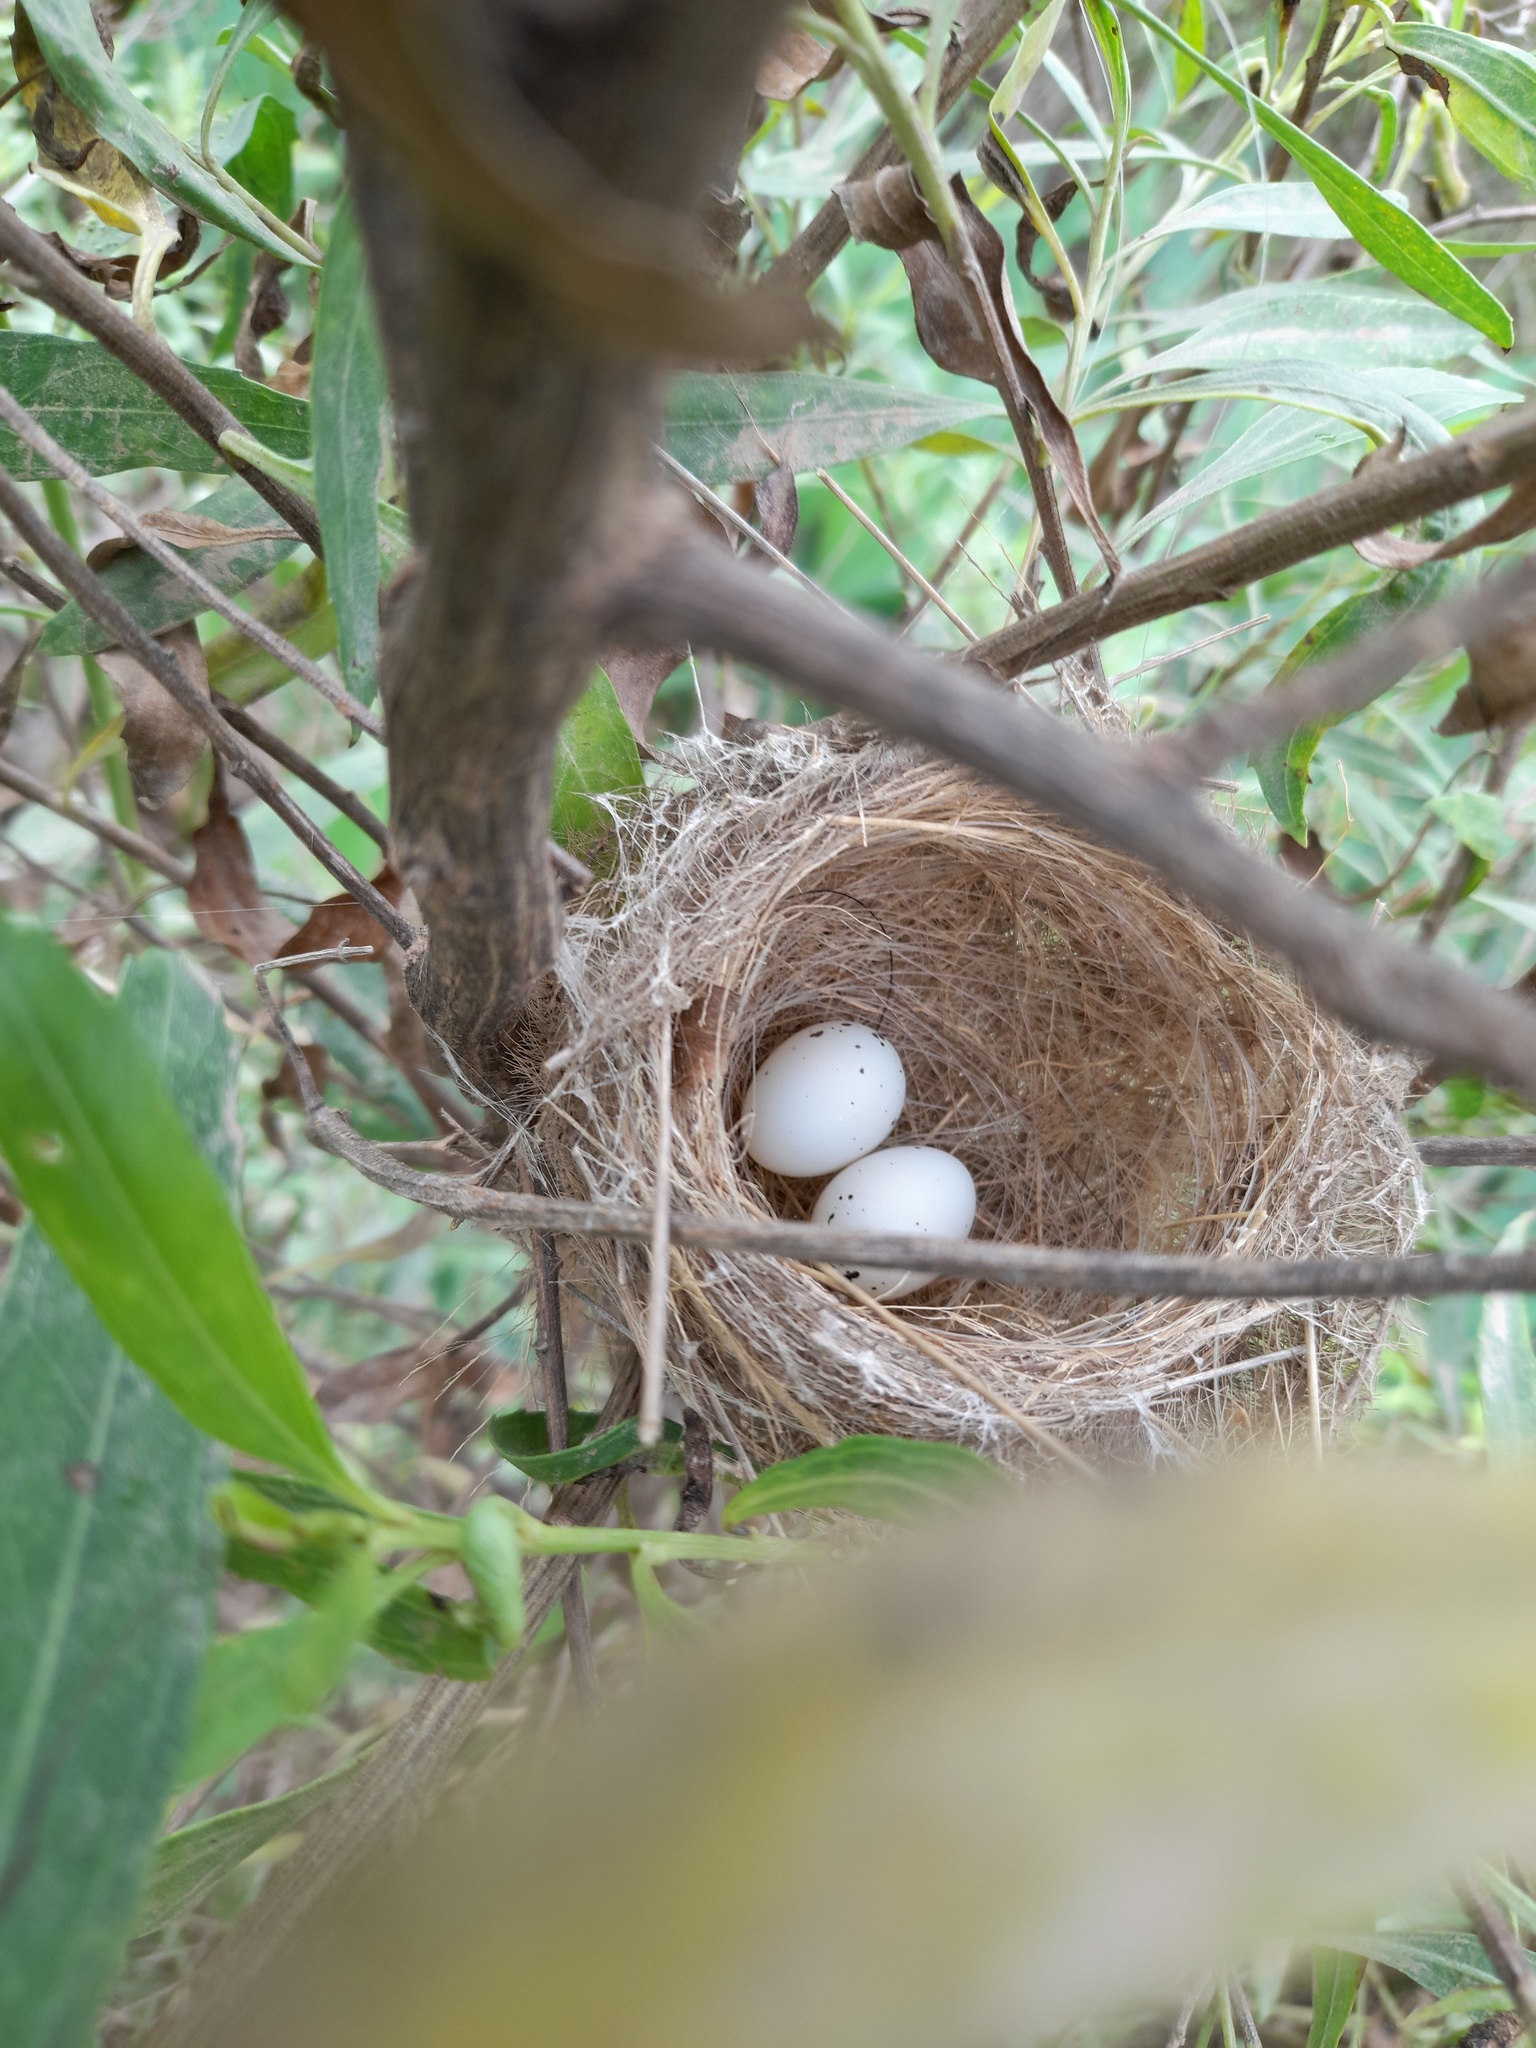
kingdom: Animalia
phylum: Chordata
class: Aves
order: Passeriformes
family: Thraupidae
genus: Microspingus
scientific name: Microspingus melanoleucus
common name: Black-capped warbling-finch
